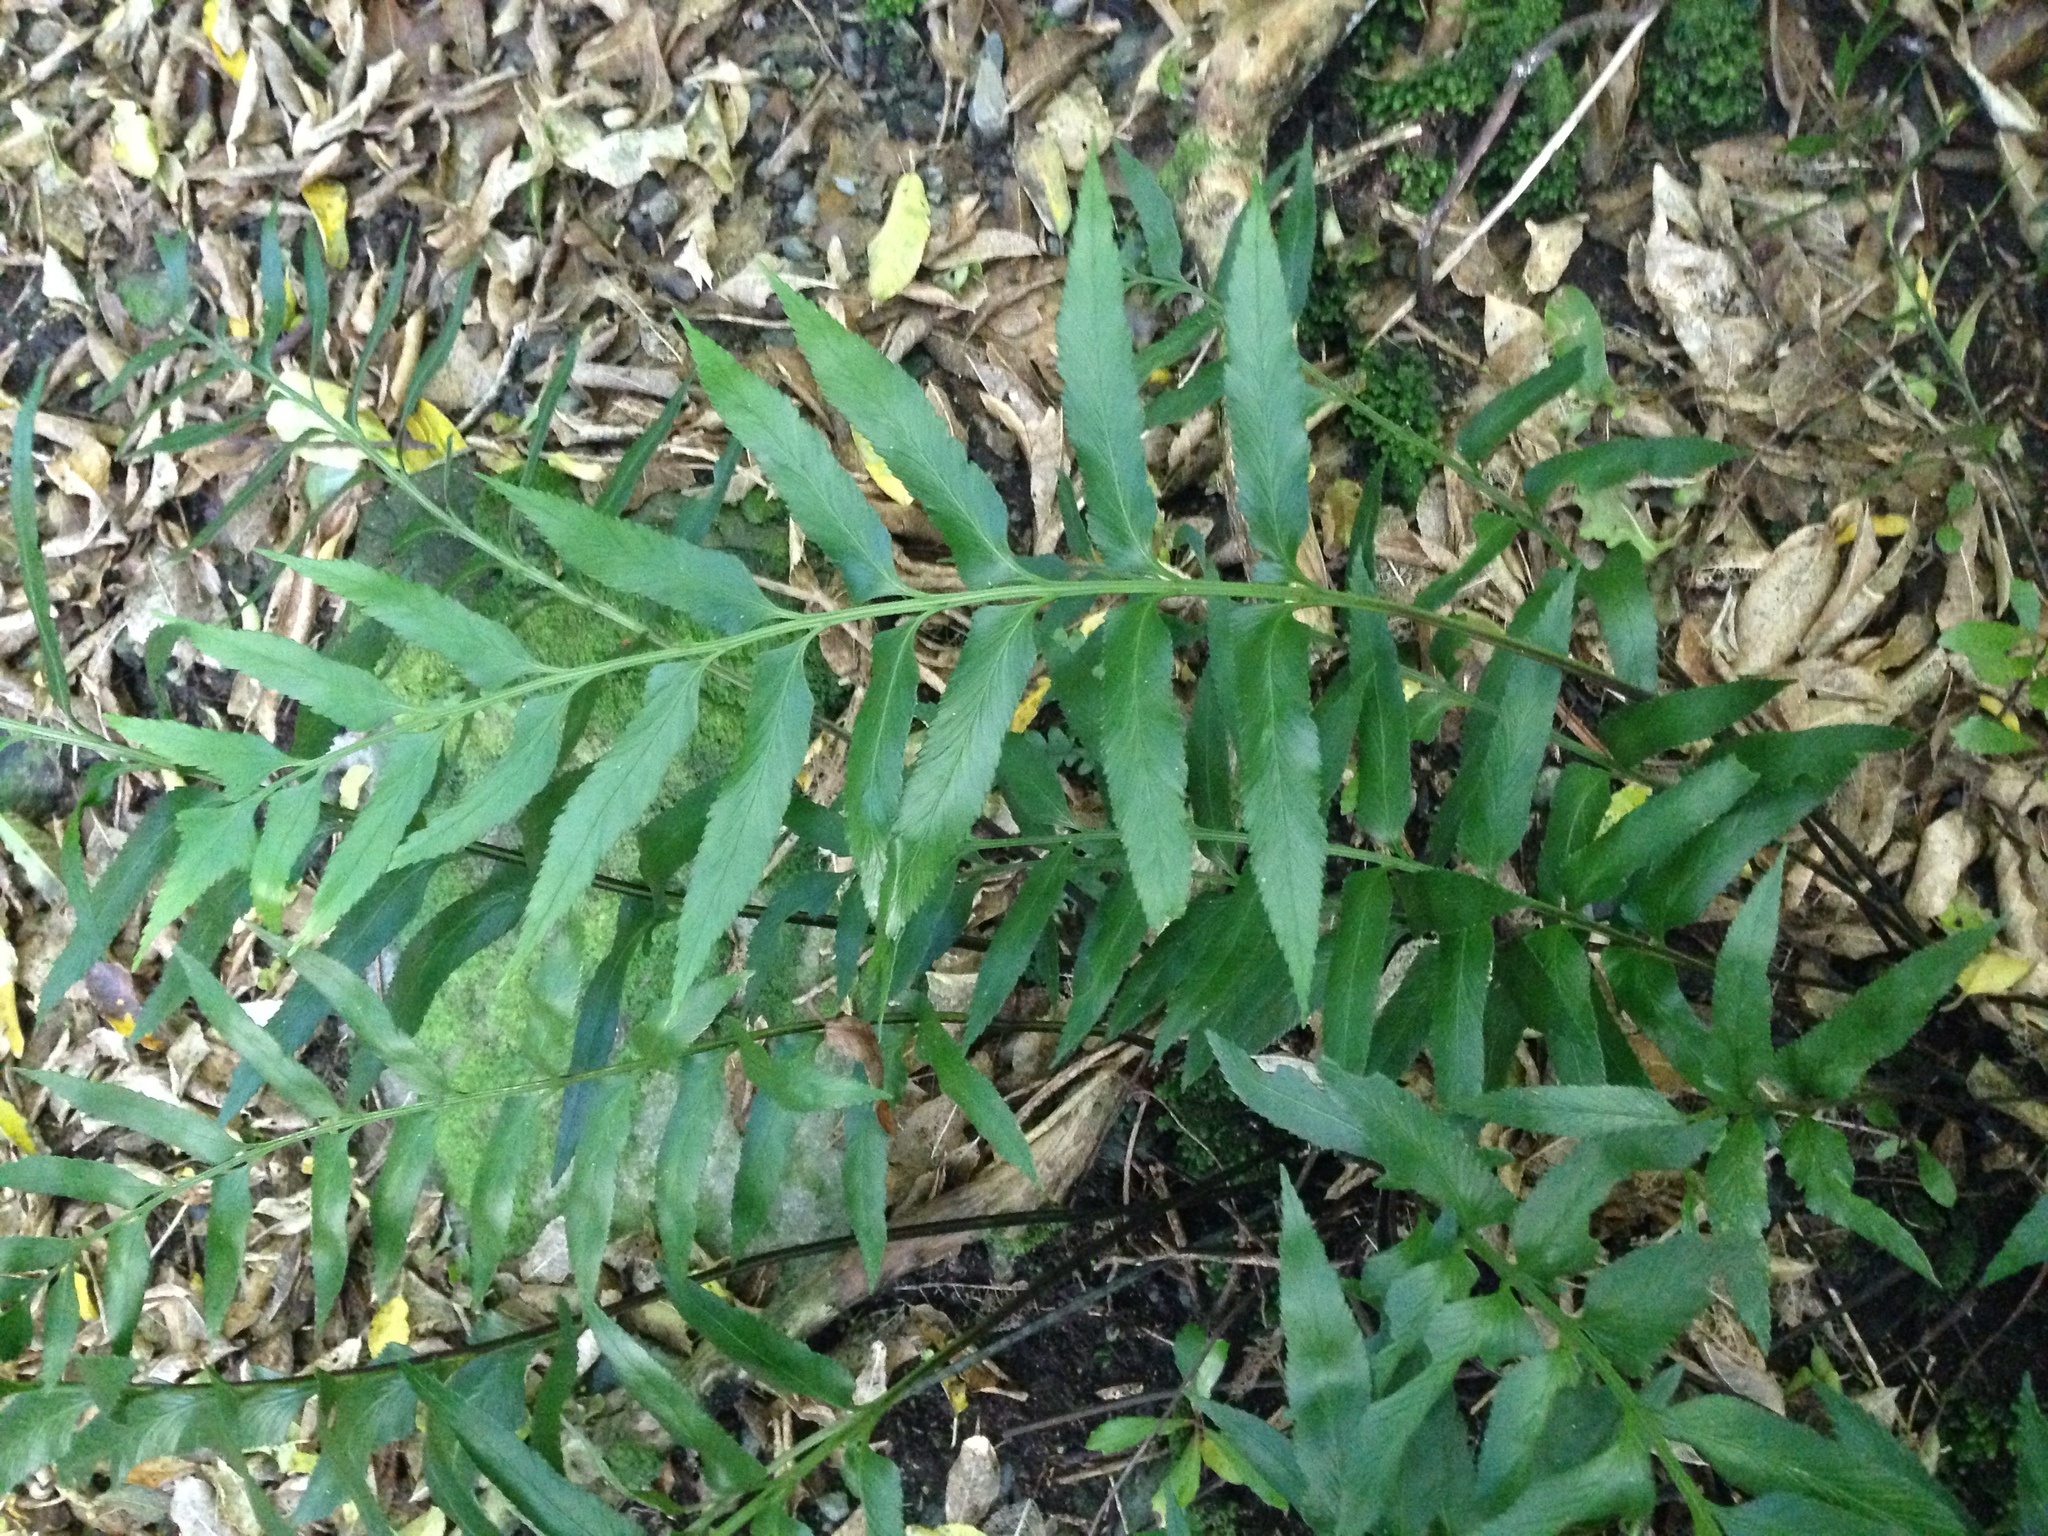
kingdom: Plantae
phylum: Tracheophyta
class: Polypodiopsida
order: Polypodiales
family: Aspleniaceae
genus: Asplenium
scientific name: Asplenium obtusatum
